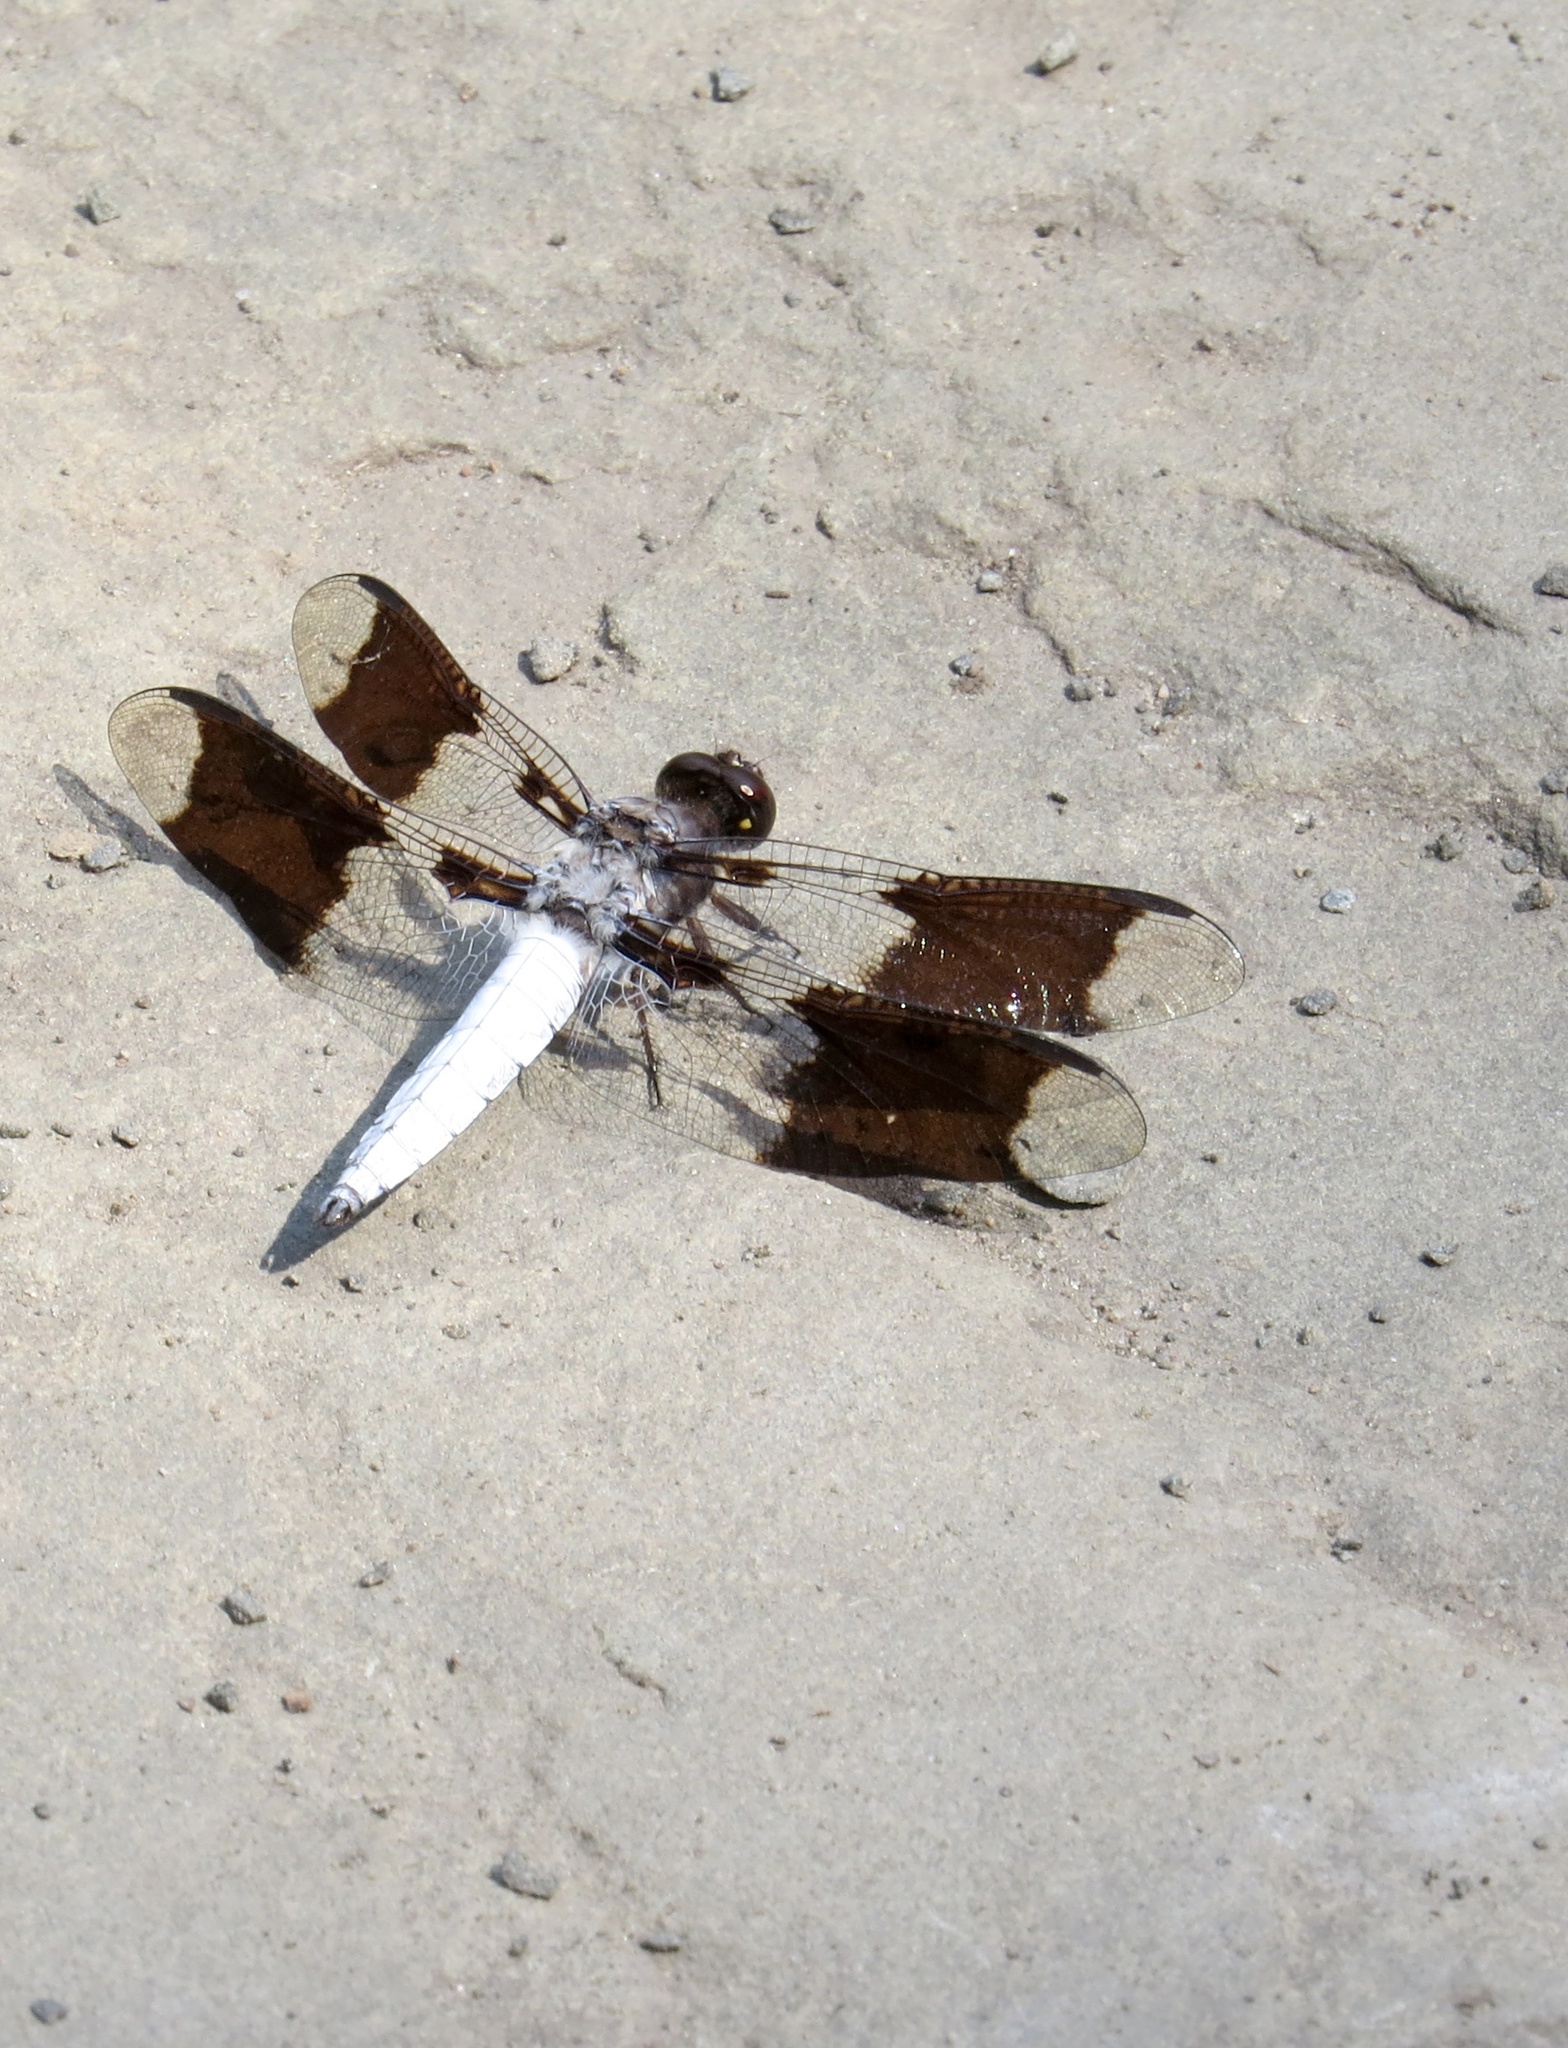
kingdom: Animalia
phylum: Arthropoda
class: Insecta
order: Odonata
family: Libellulidae
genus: Plathemis
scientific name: Plathemis lydia
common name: Common whitetail
